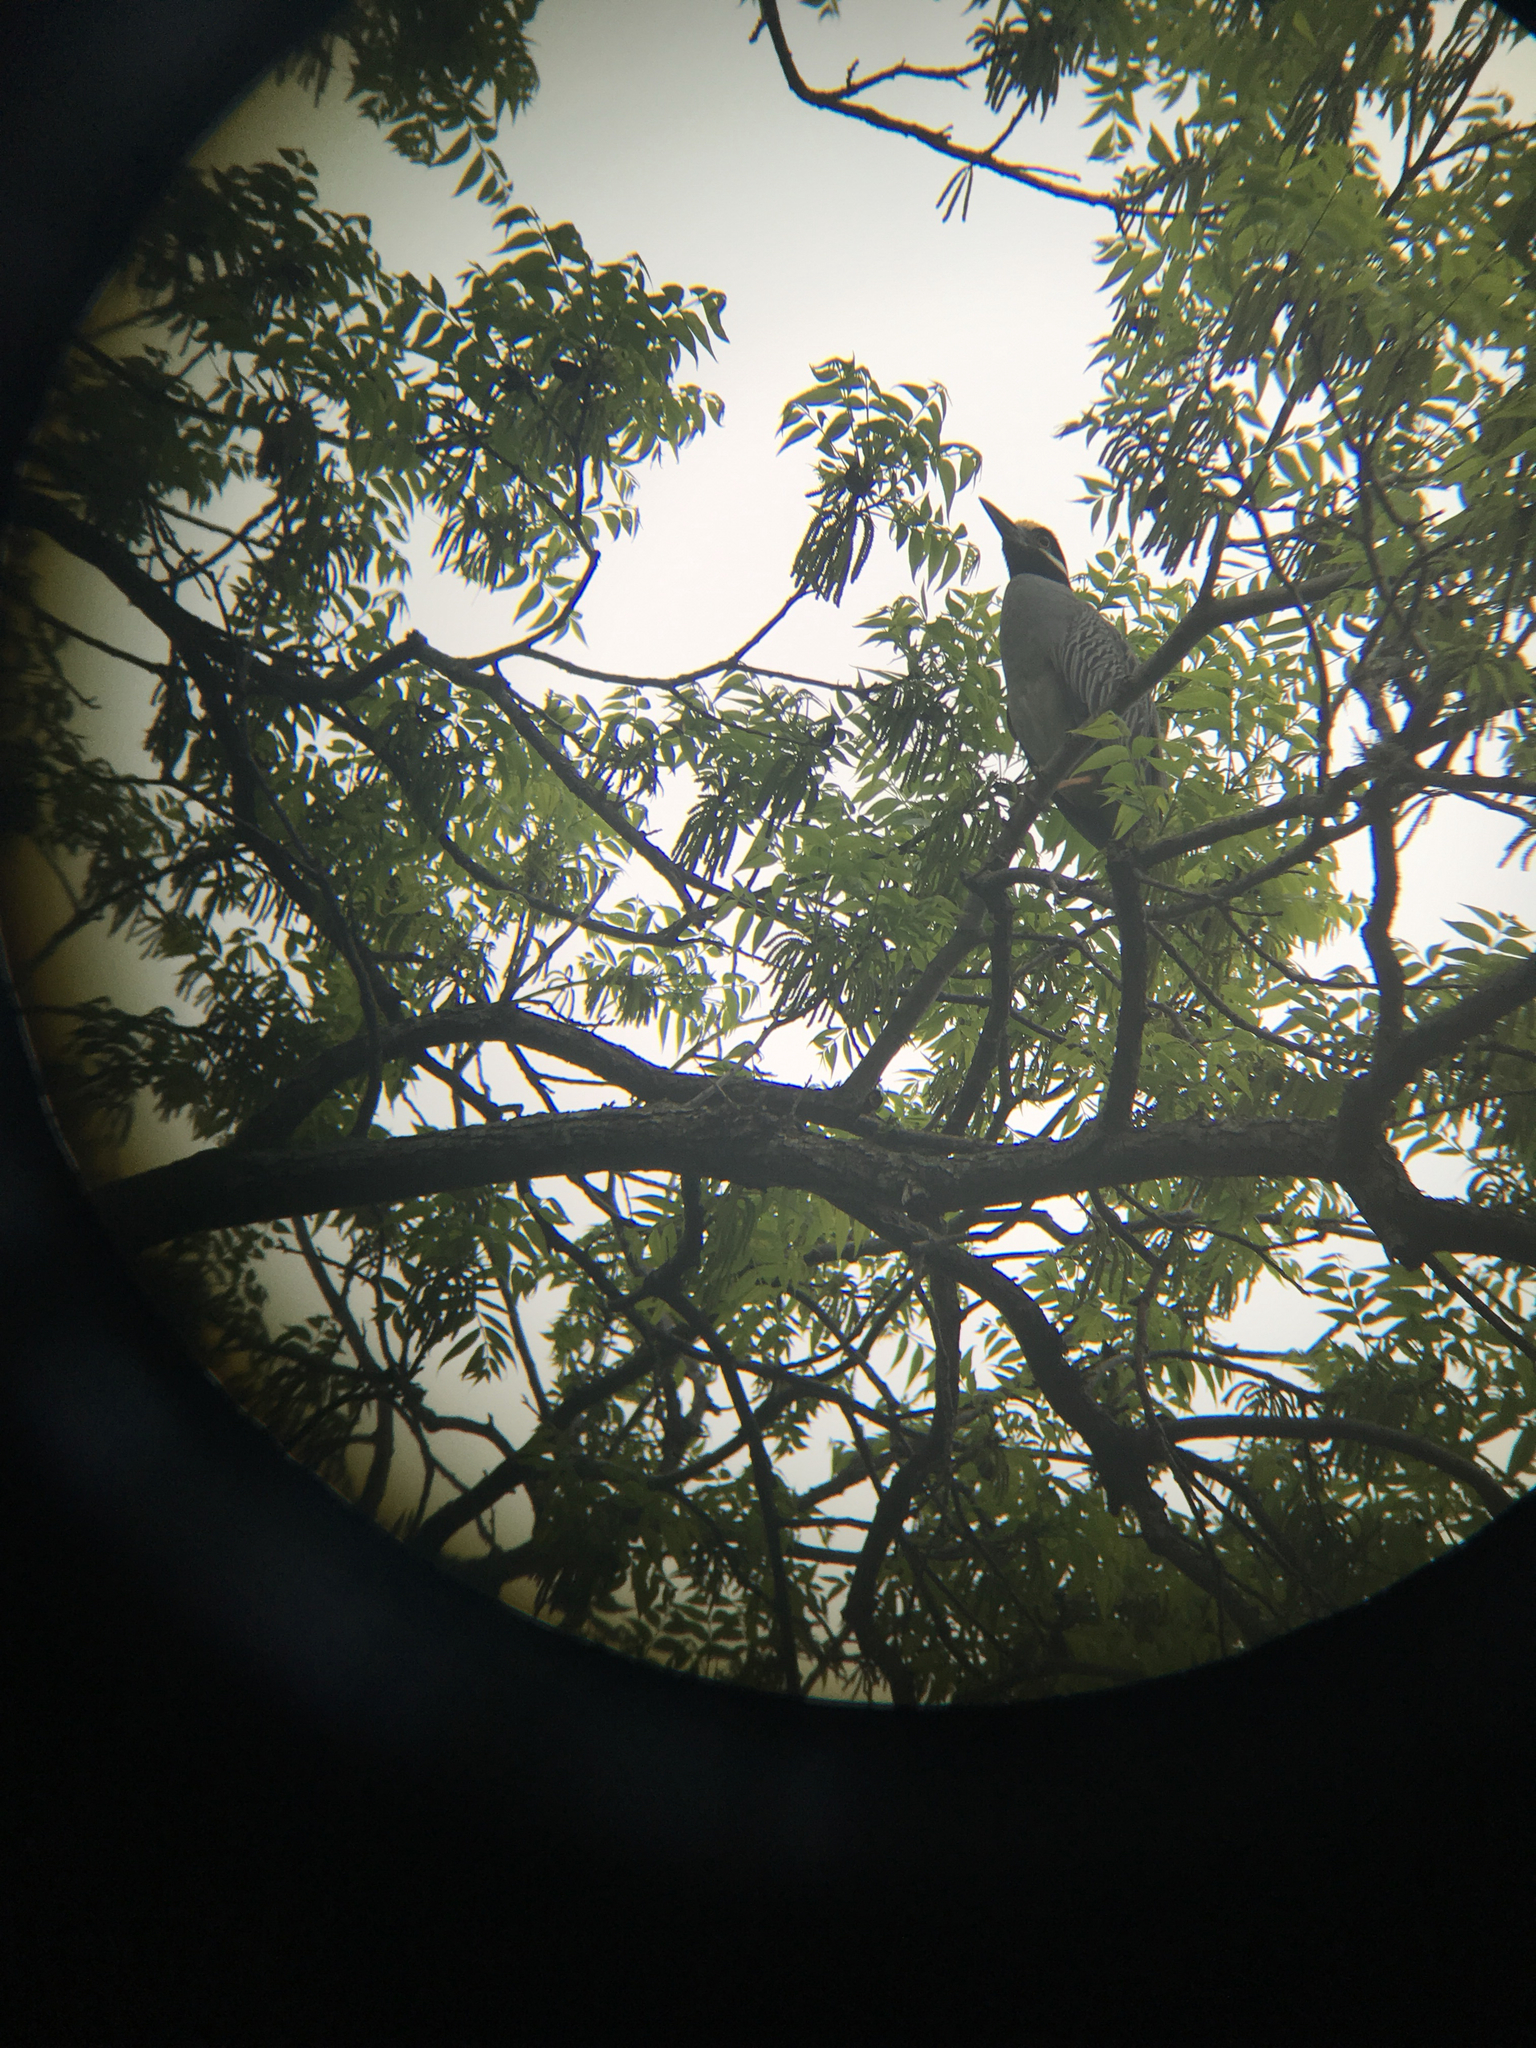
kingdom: Animalia
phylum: Chordata
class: Aves
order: Pelecaniformes
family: Ardeidae
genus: Nyctanassa
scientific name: Nyctanassa violacea
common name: Yellow-crowned night heron
